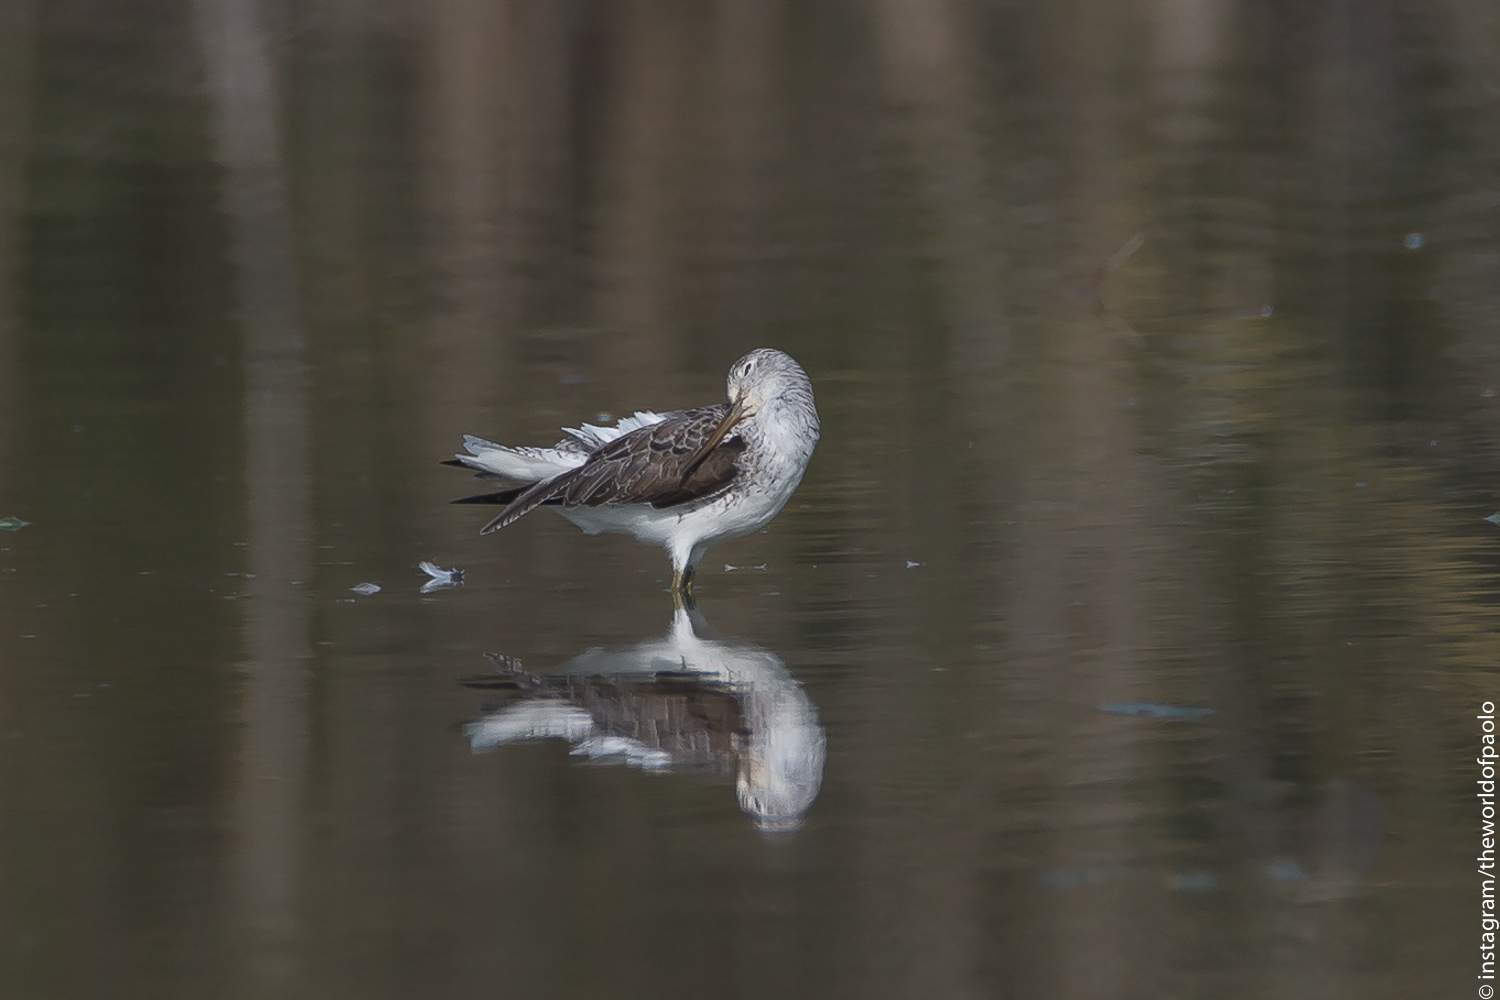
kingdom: Animalia
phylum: Chordata
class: Aves
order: Charadriiformes
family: Scolopacidae
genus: Tringa
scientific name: Tringa nebularia
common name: Common greenshank
